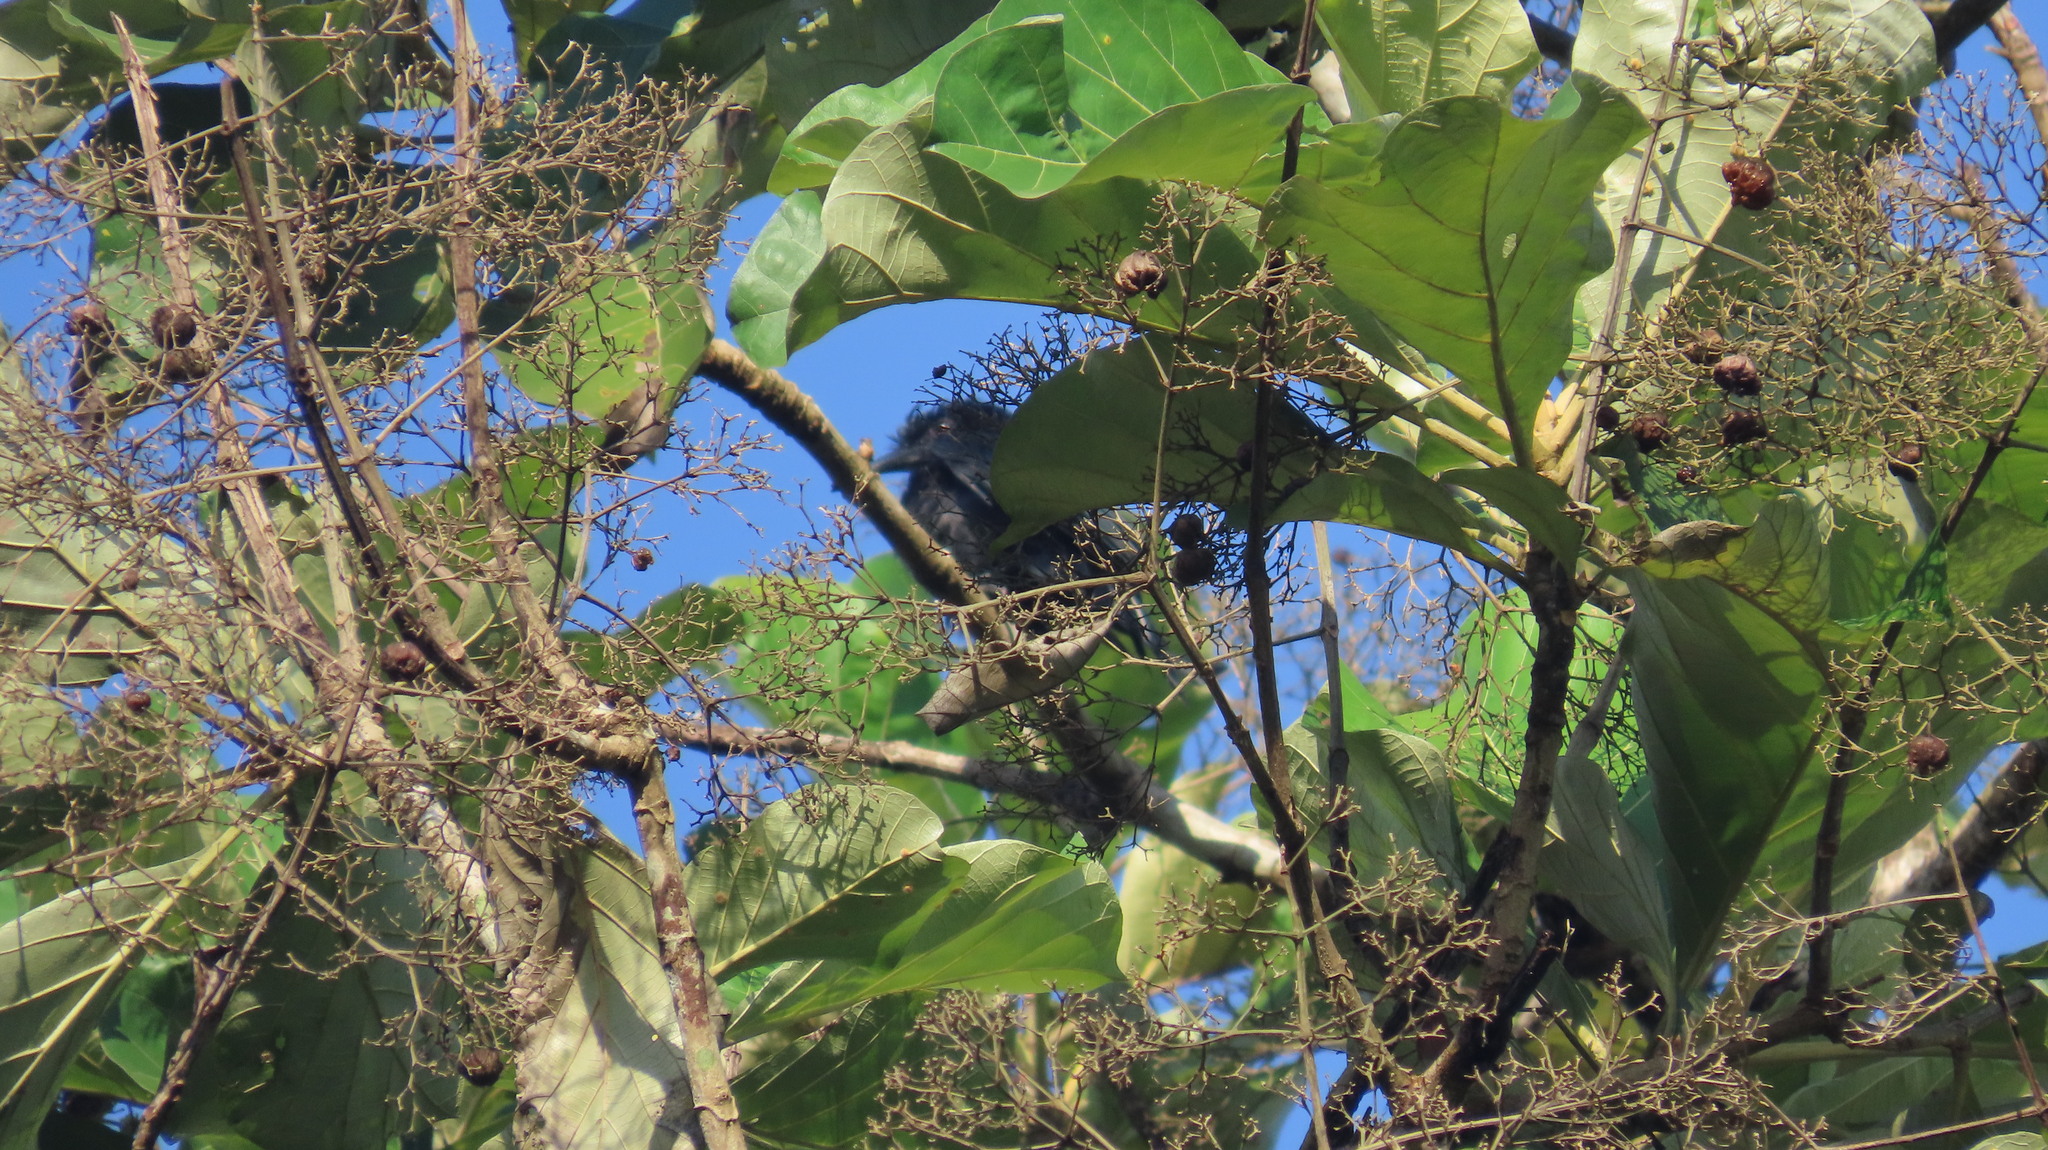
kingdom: Animalia
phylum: Chordata
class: Aves
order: Passeriformes
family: Dicruridae
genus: Dicrurus
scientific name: Dicrurus paradiseus
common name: Greater racket-tailed drongo
